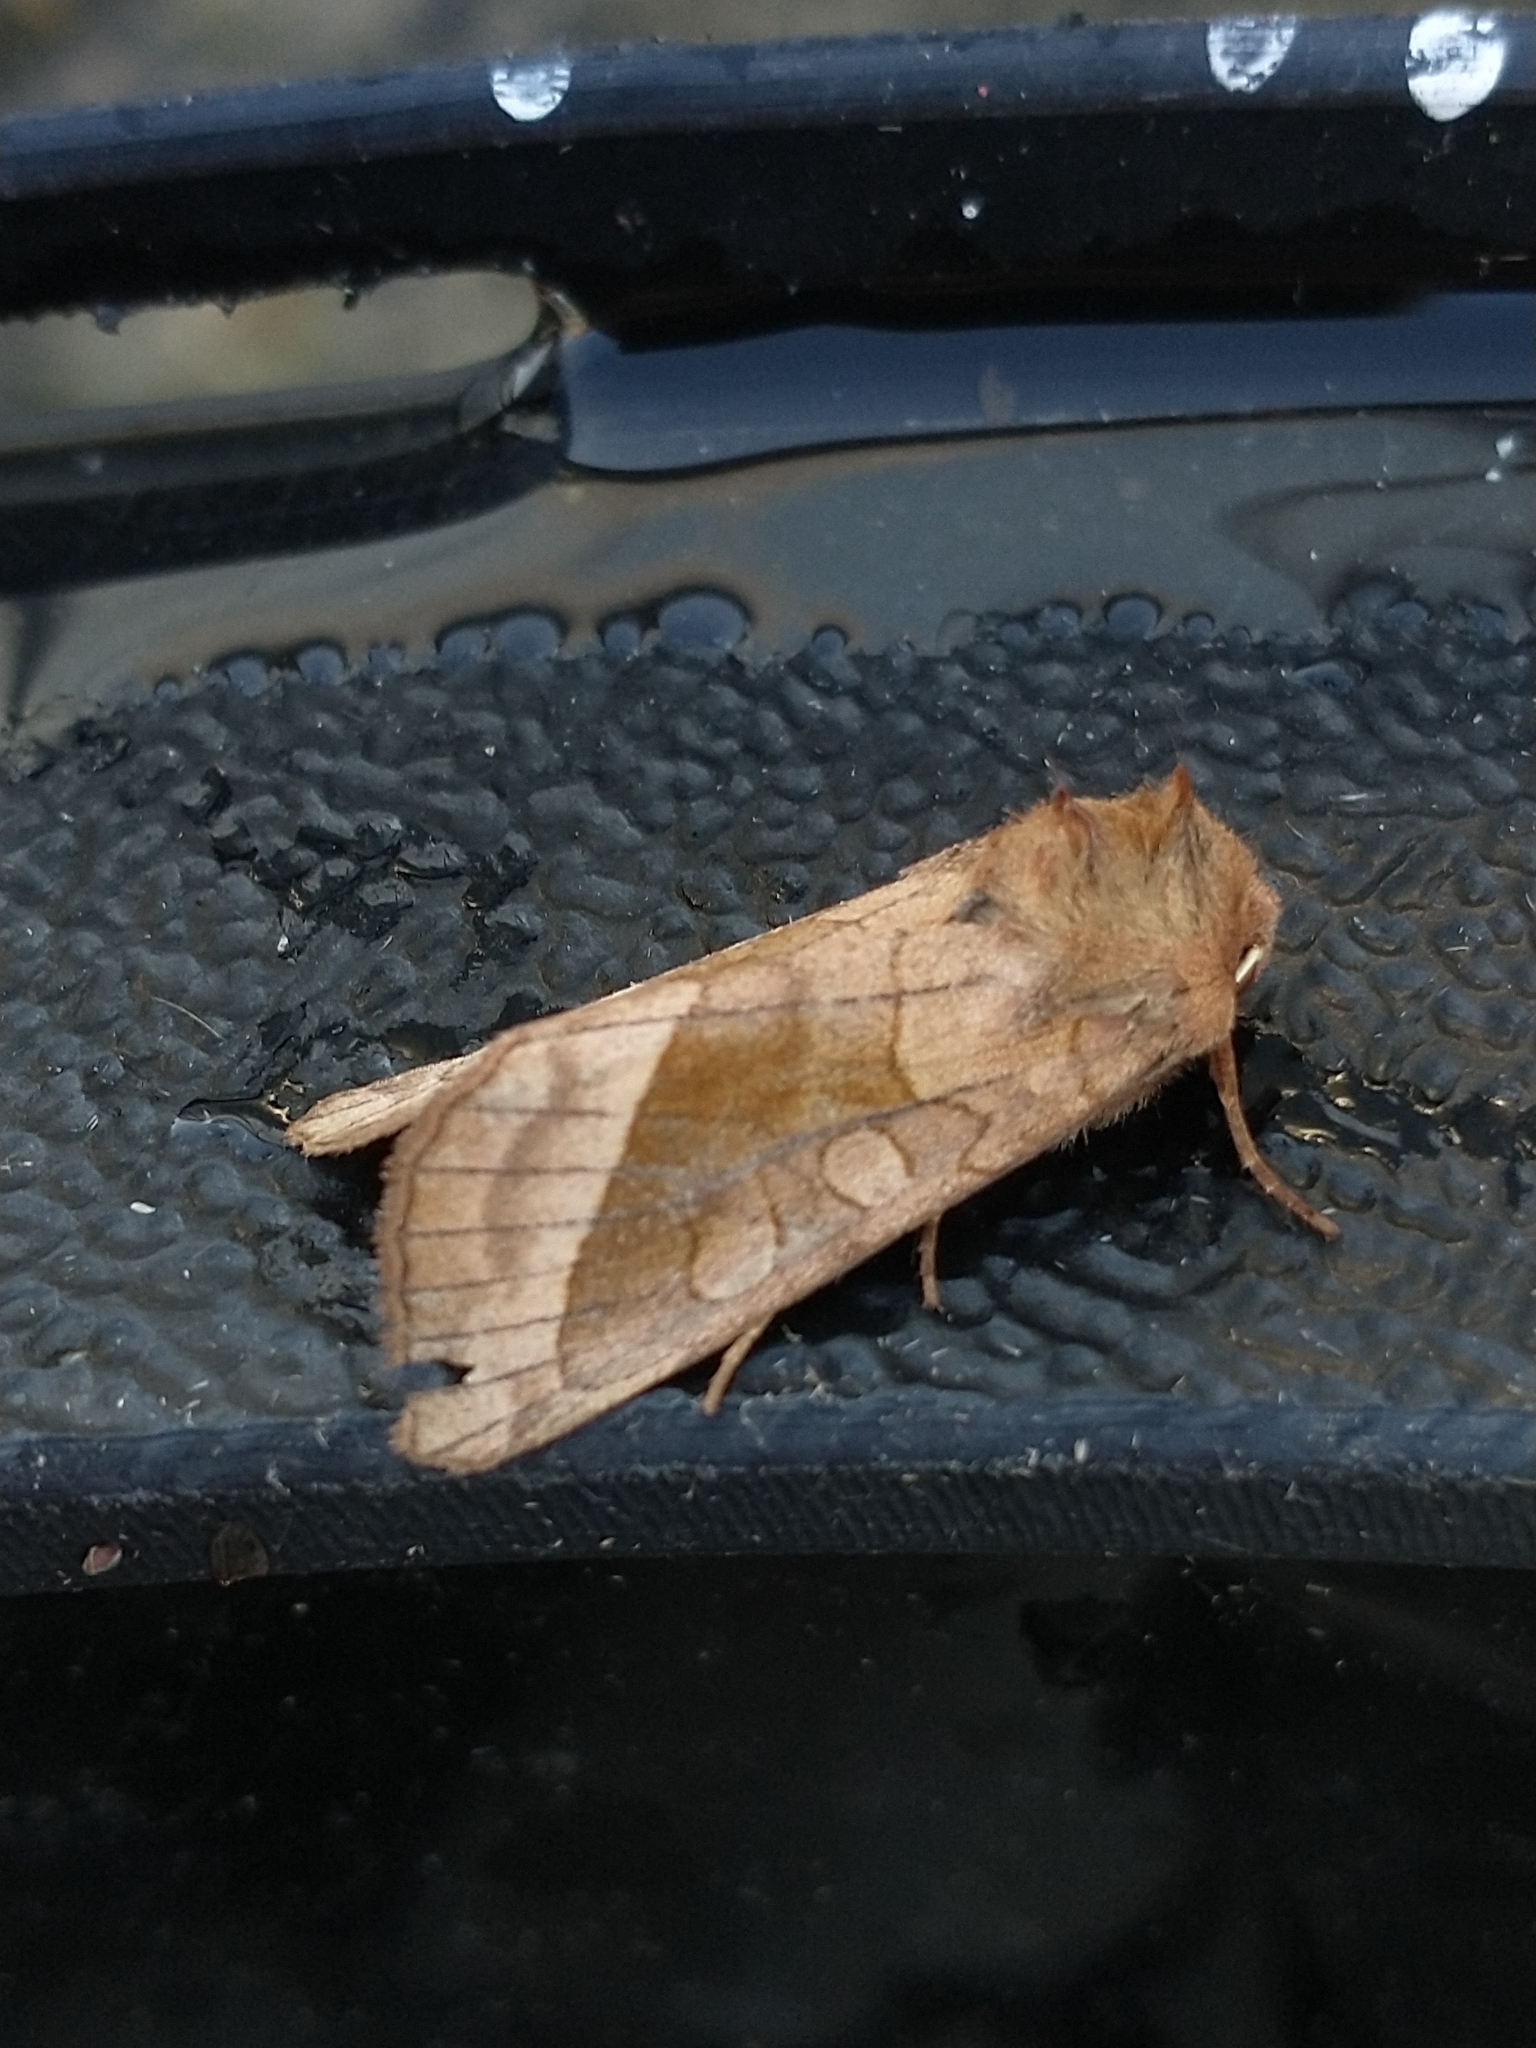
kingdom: Animalia
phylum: Arthropoda
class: Insecta
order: Lepidoptera
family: Noctuidae
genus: Hydraecia
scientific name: Hydraecia micacea
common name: Rosy rustic
